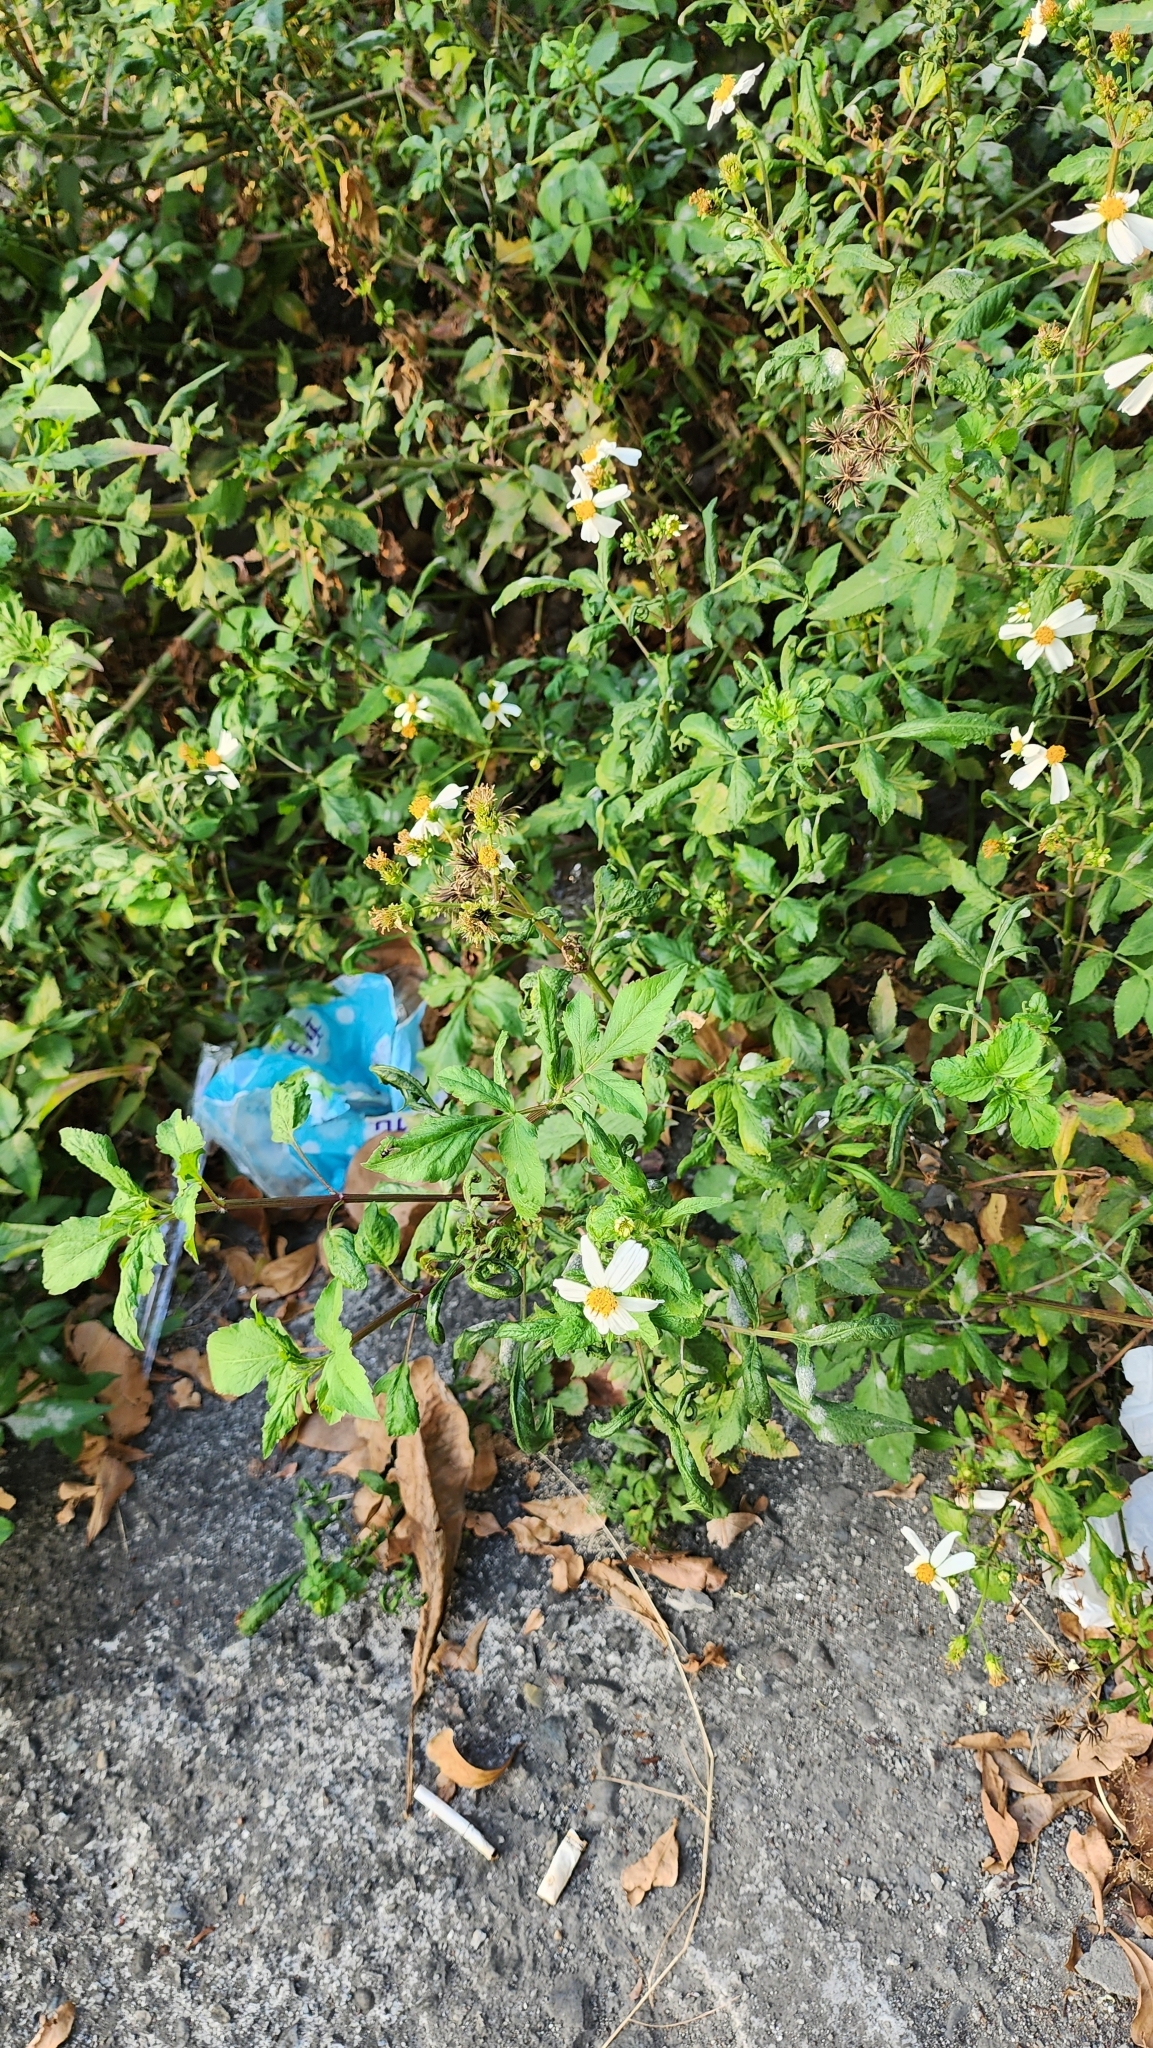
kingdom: Plantae
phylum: Tracheophyta
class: Magnoliopsida
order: Asterales
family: Asteraceae
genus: Bidens
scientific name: Bidens alba
